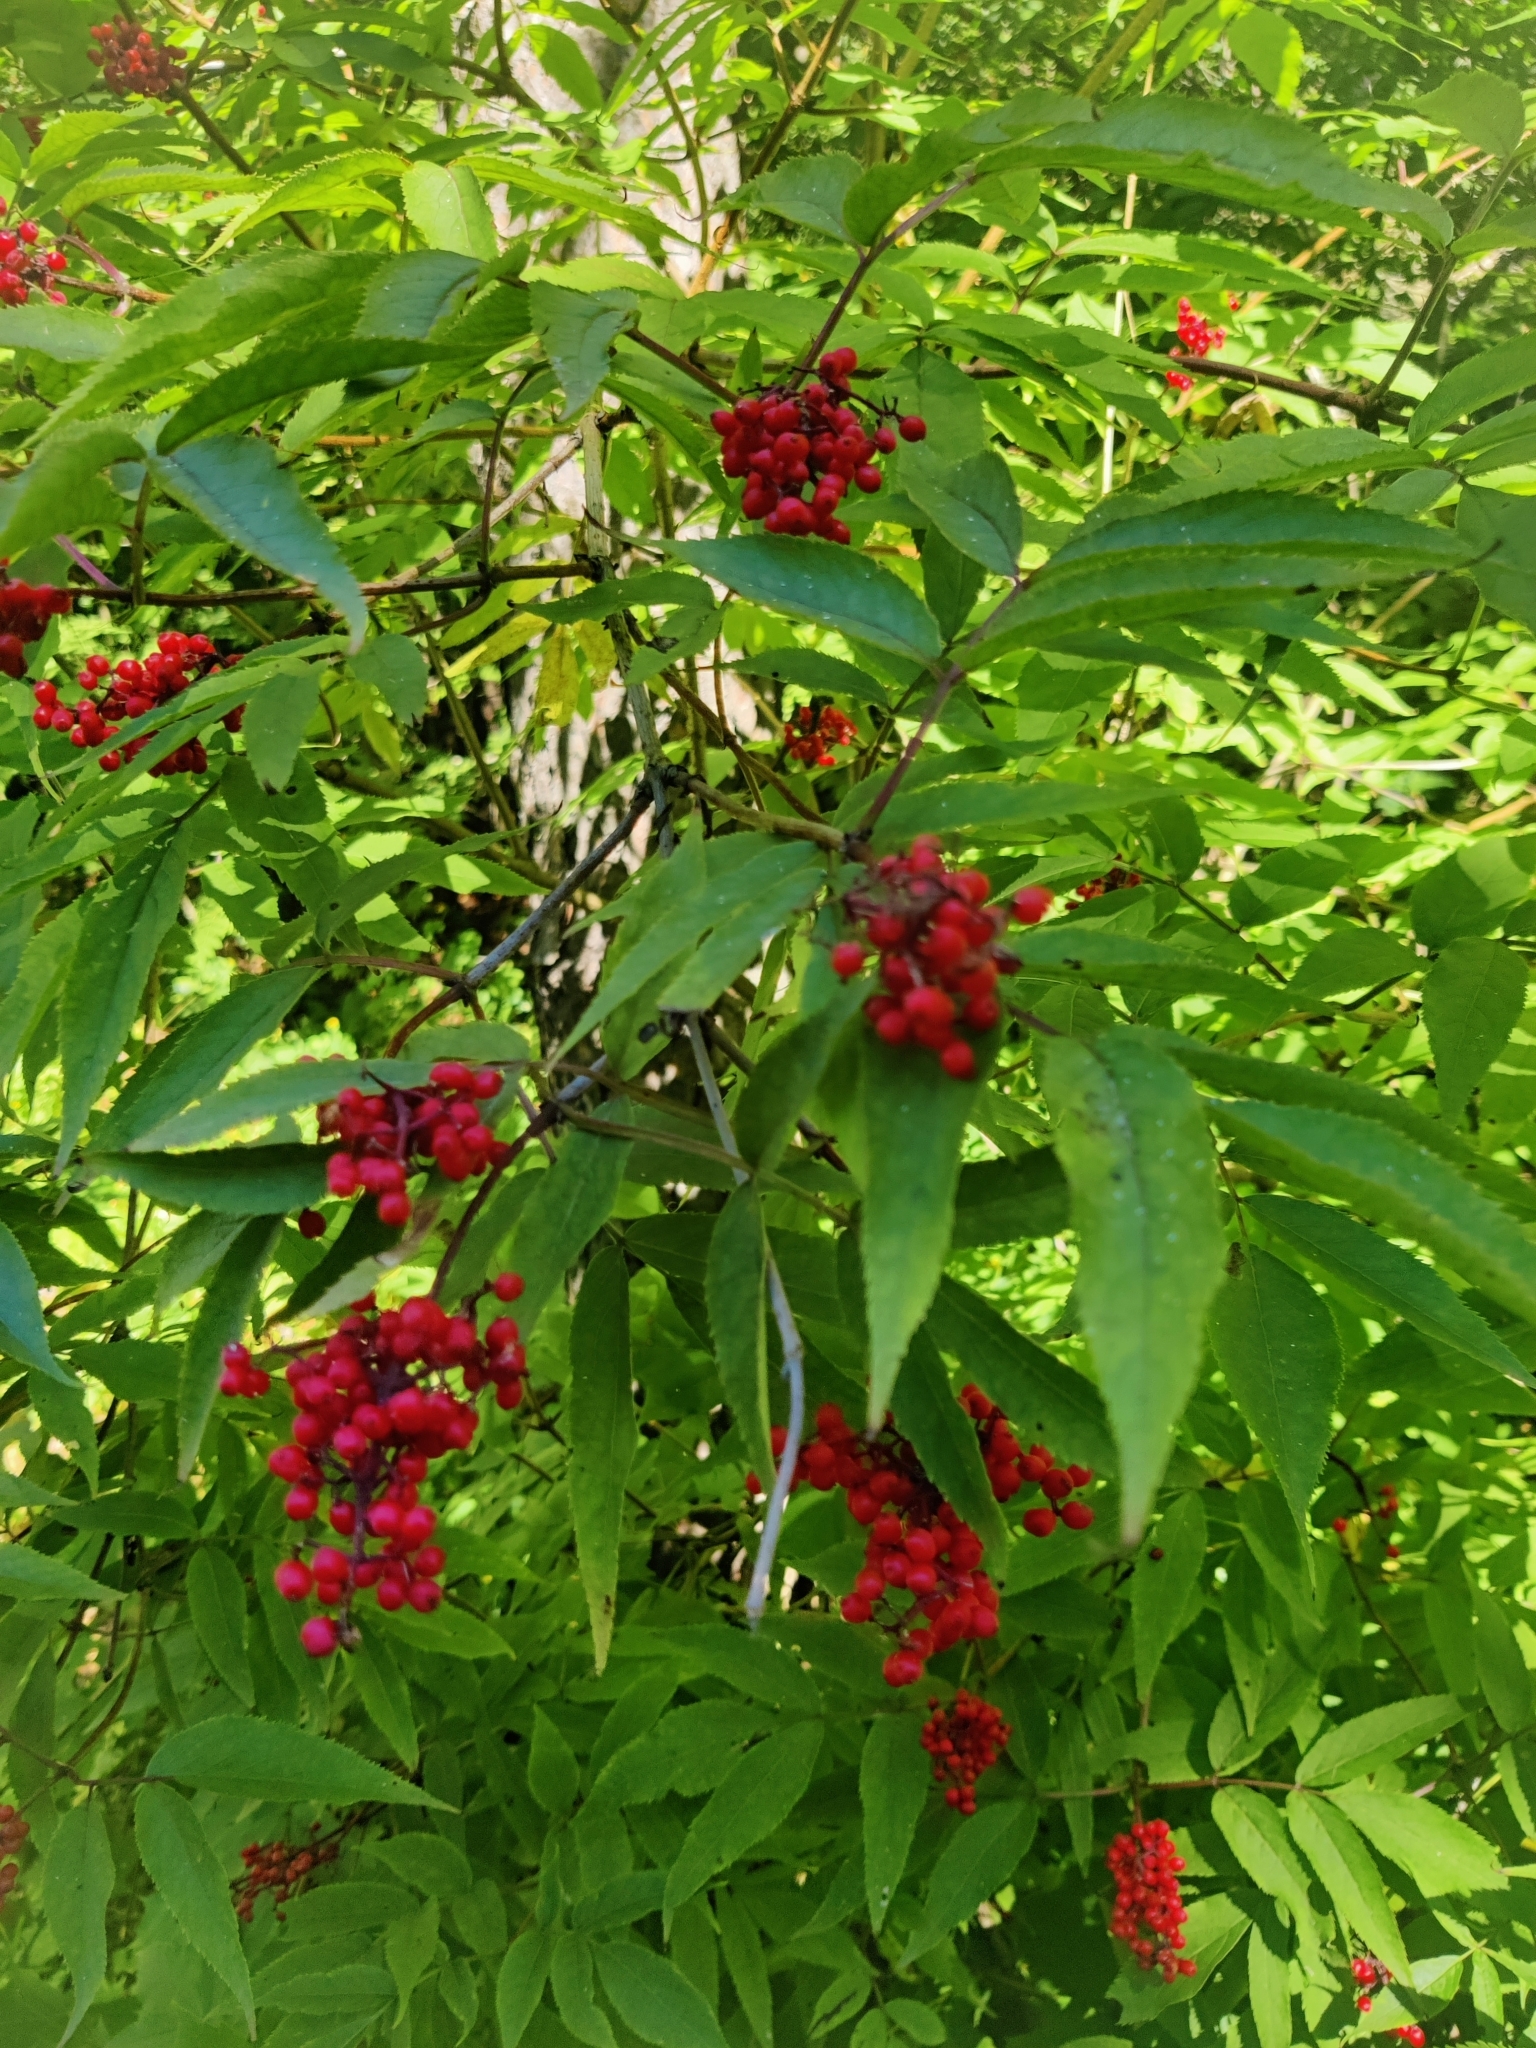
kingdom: Plantae
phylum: Tracheophyta
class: Magnoliopsida
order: Dipsacales
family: Viburnaceae
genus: Sambucus
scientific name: Sambucus racemosa
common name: Red-berried elder
